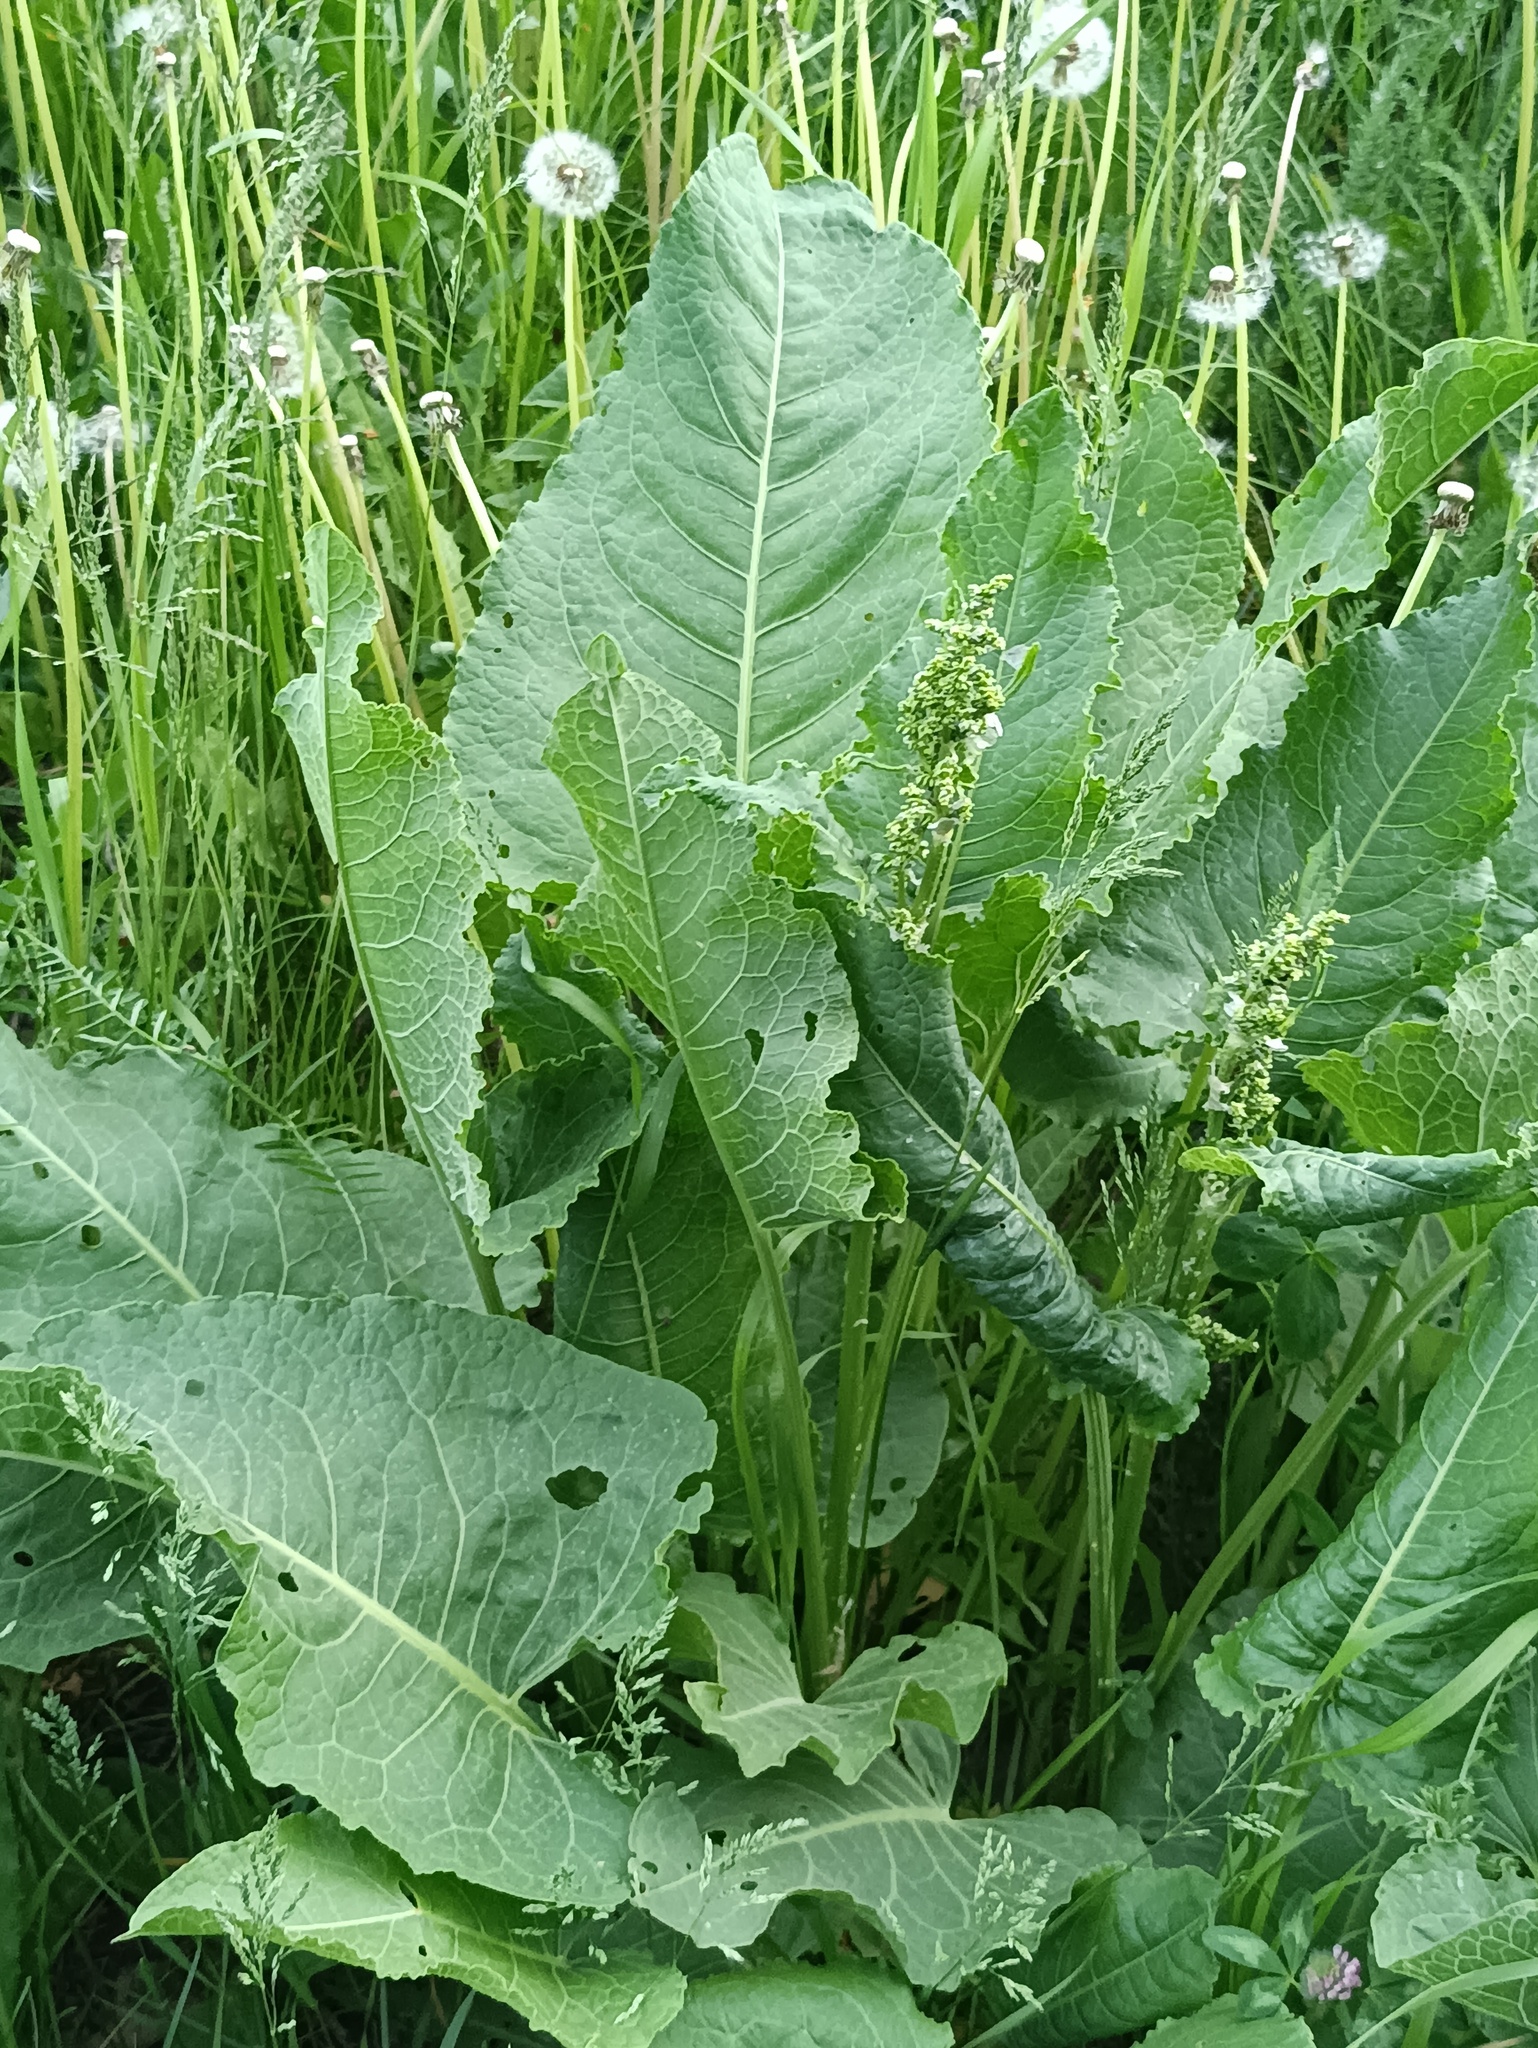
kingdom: Plantae
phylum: Tracheophyta
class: Magnoliopsida
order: Caryophyllales
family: Polygonaceae
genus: Rumex
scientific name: Rumex confertus
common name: Russian dock
